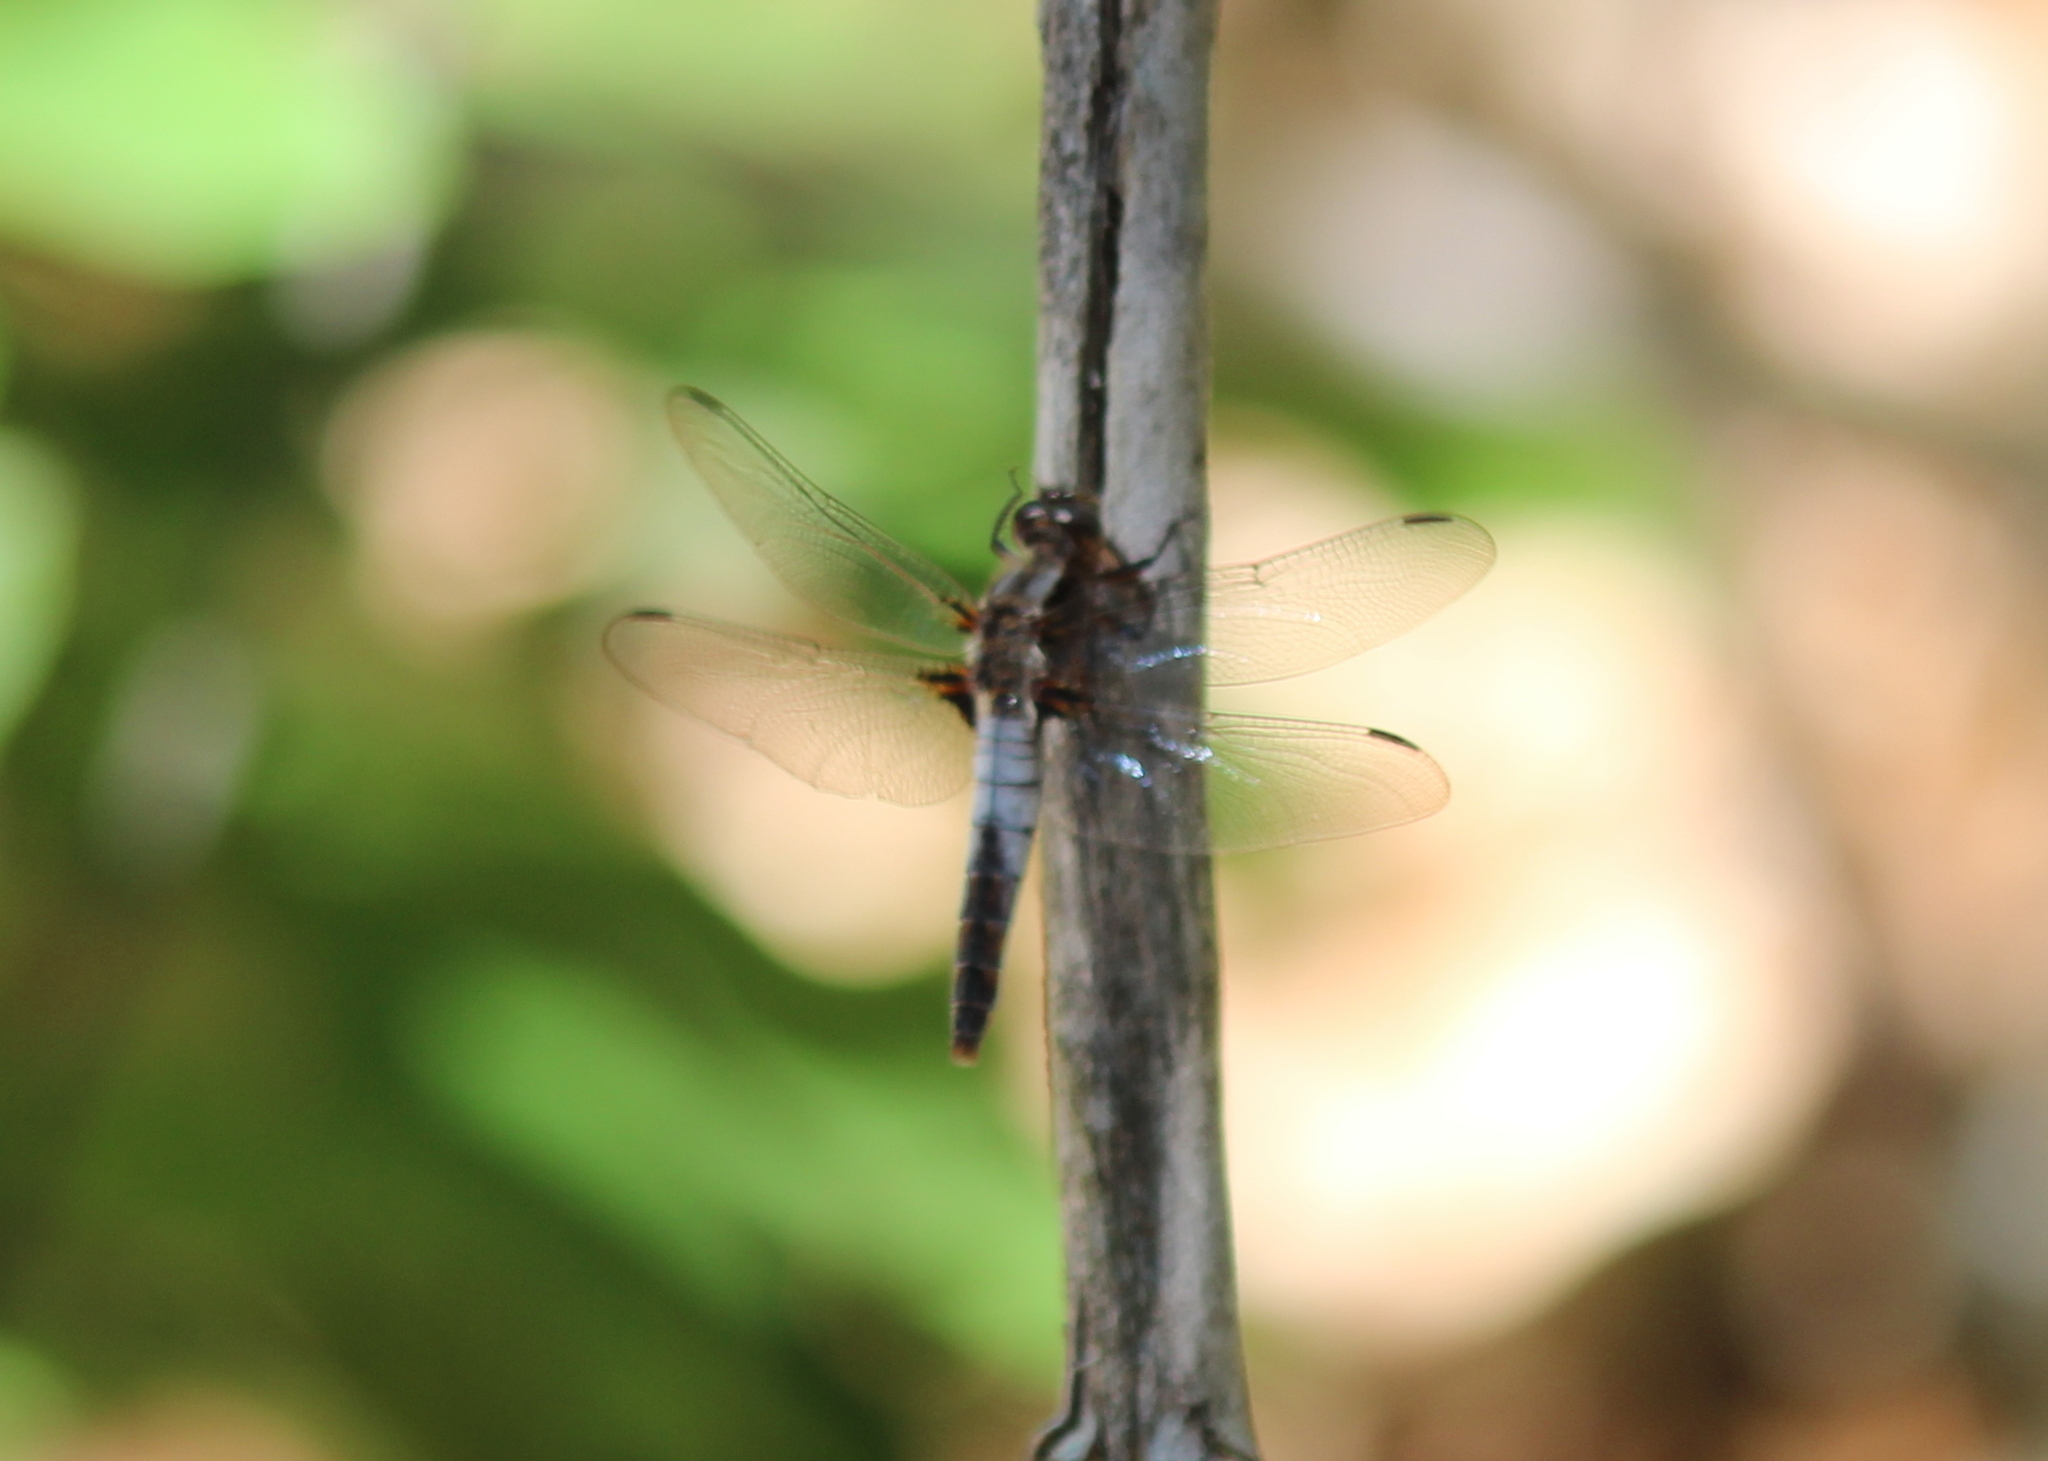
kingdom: Animalia
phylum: Arthropoda
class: Insecta
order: Odonata
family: Libellulidae
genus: Ladona
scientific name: Ladona julia
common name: Chalk-fronted corporal
